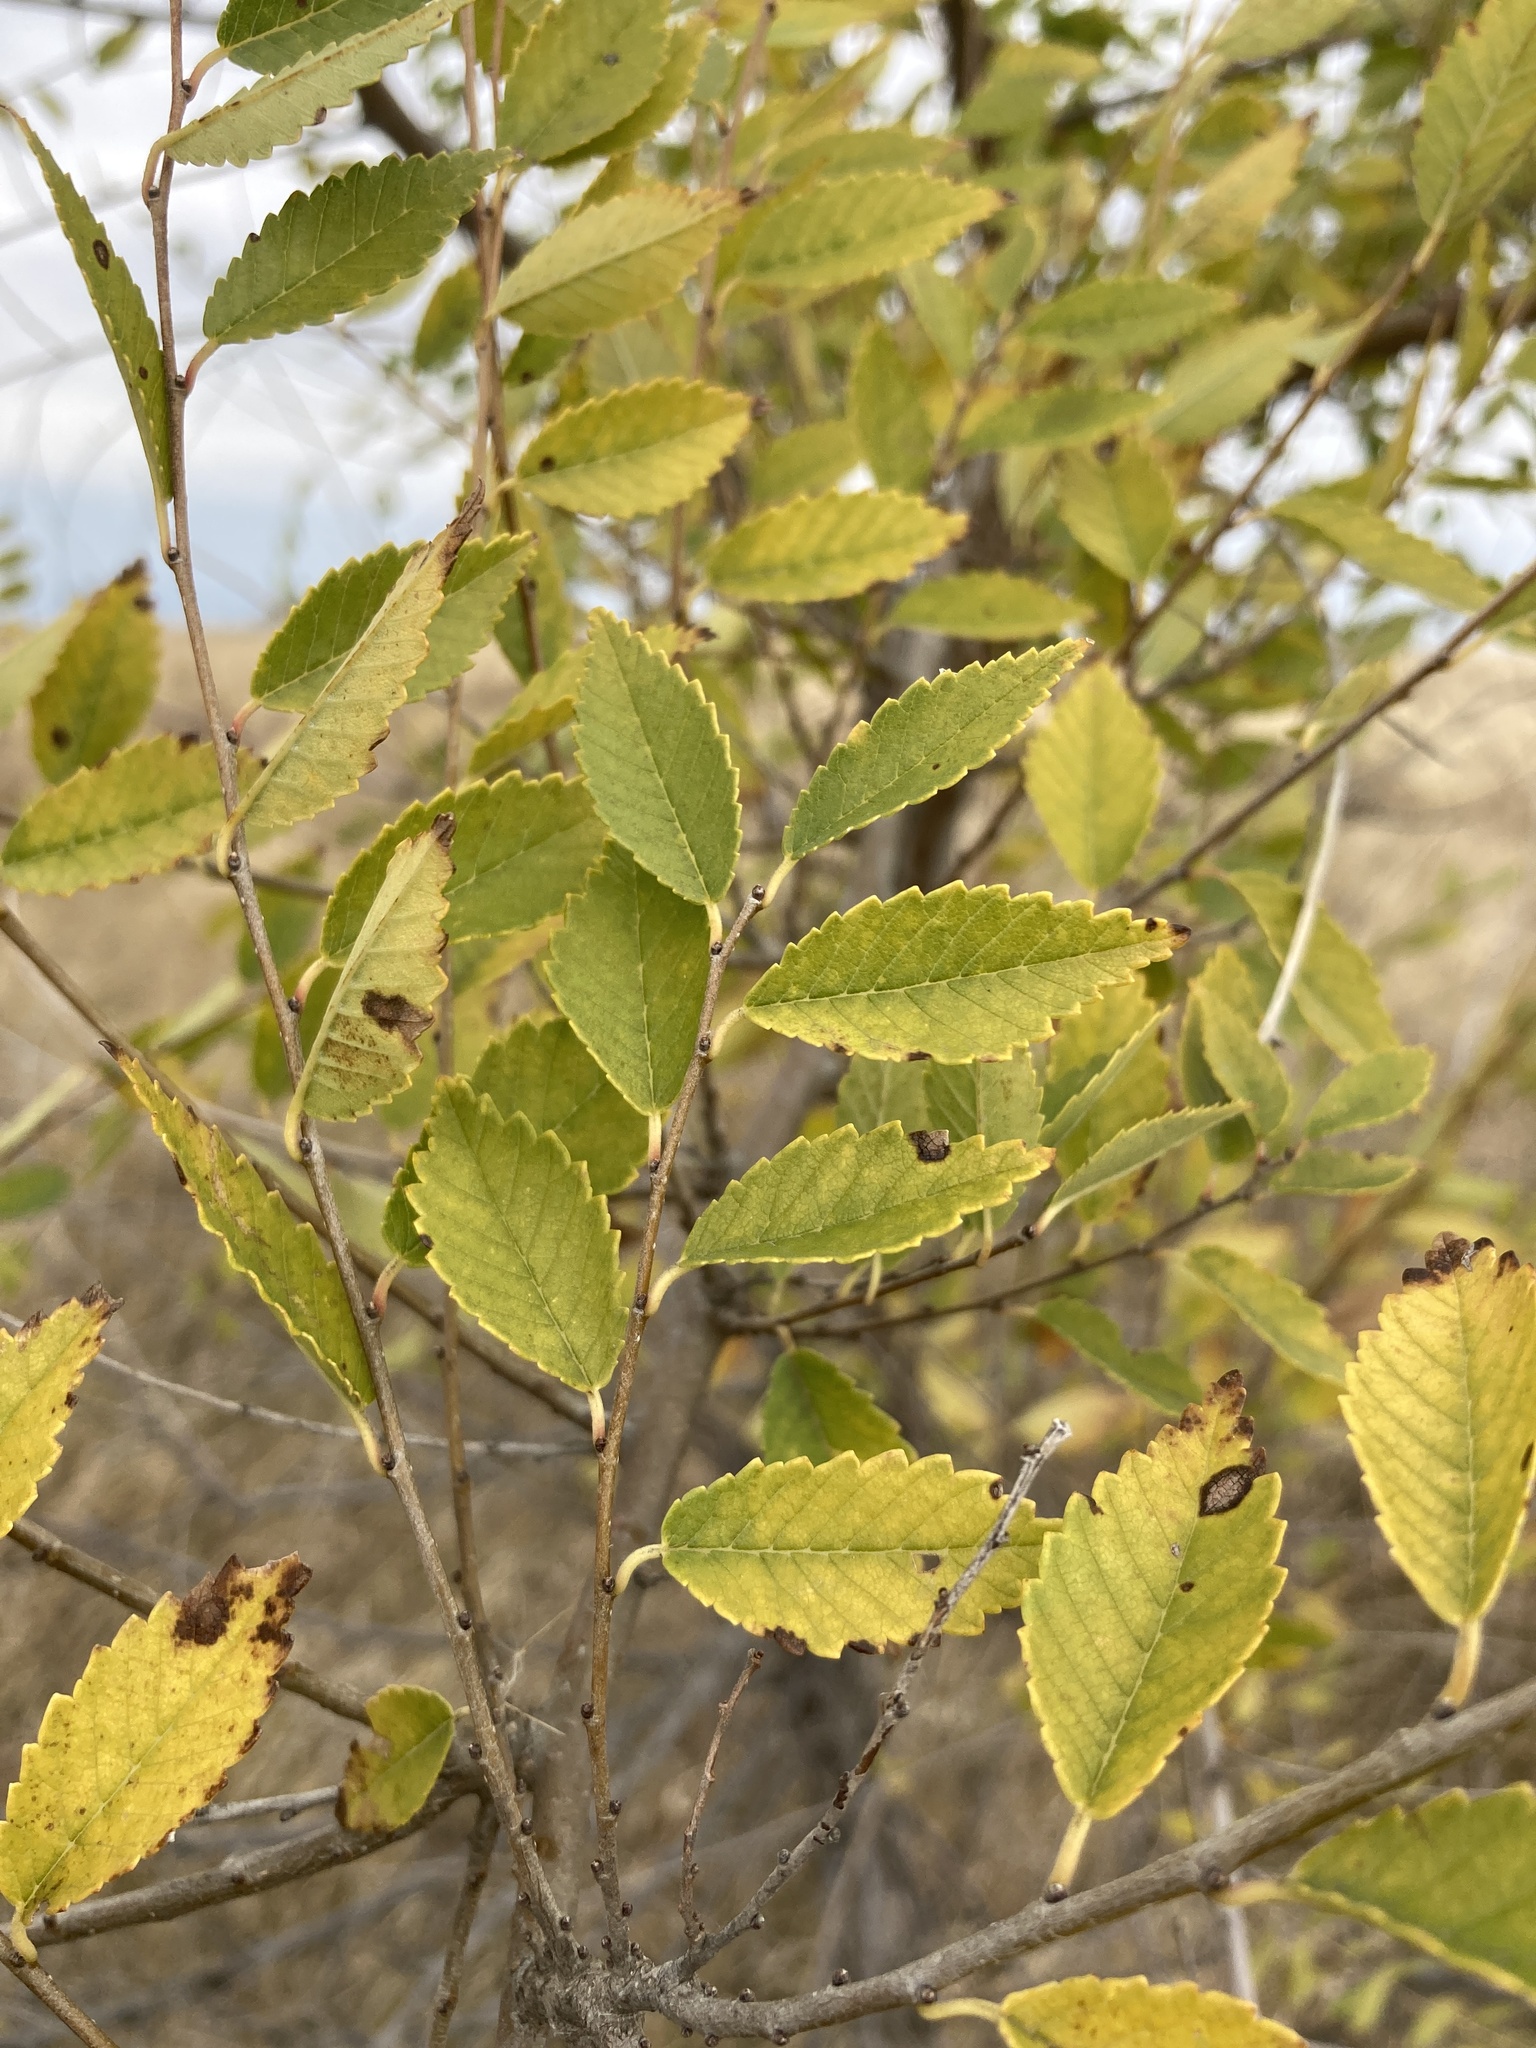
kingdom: Plantae
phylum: Tracheophyta
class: Magnoliopsida
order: Rosales
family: Ulmaceae
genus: Ulmus
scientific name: Ulmus pumila
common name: Siberian elm
